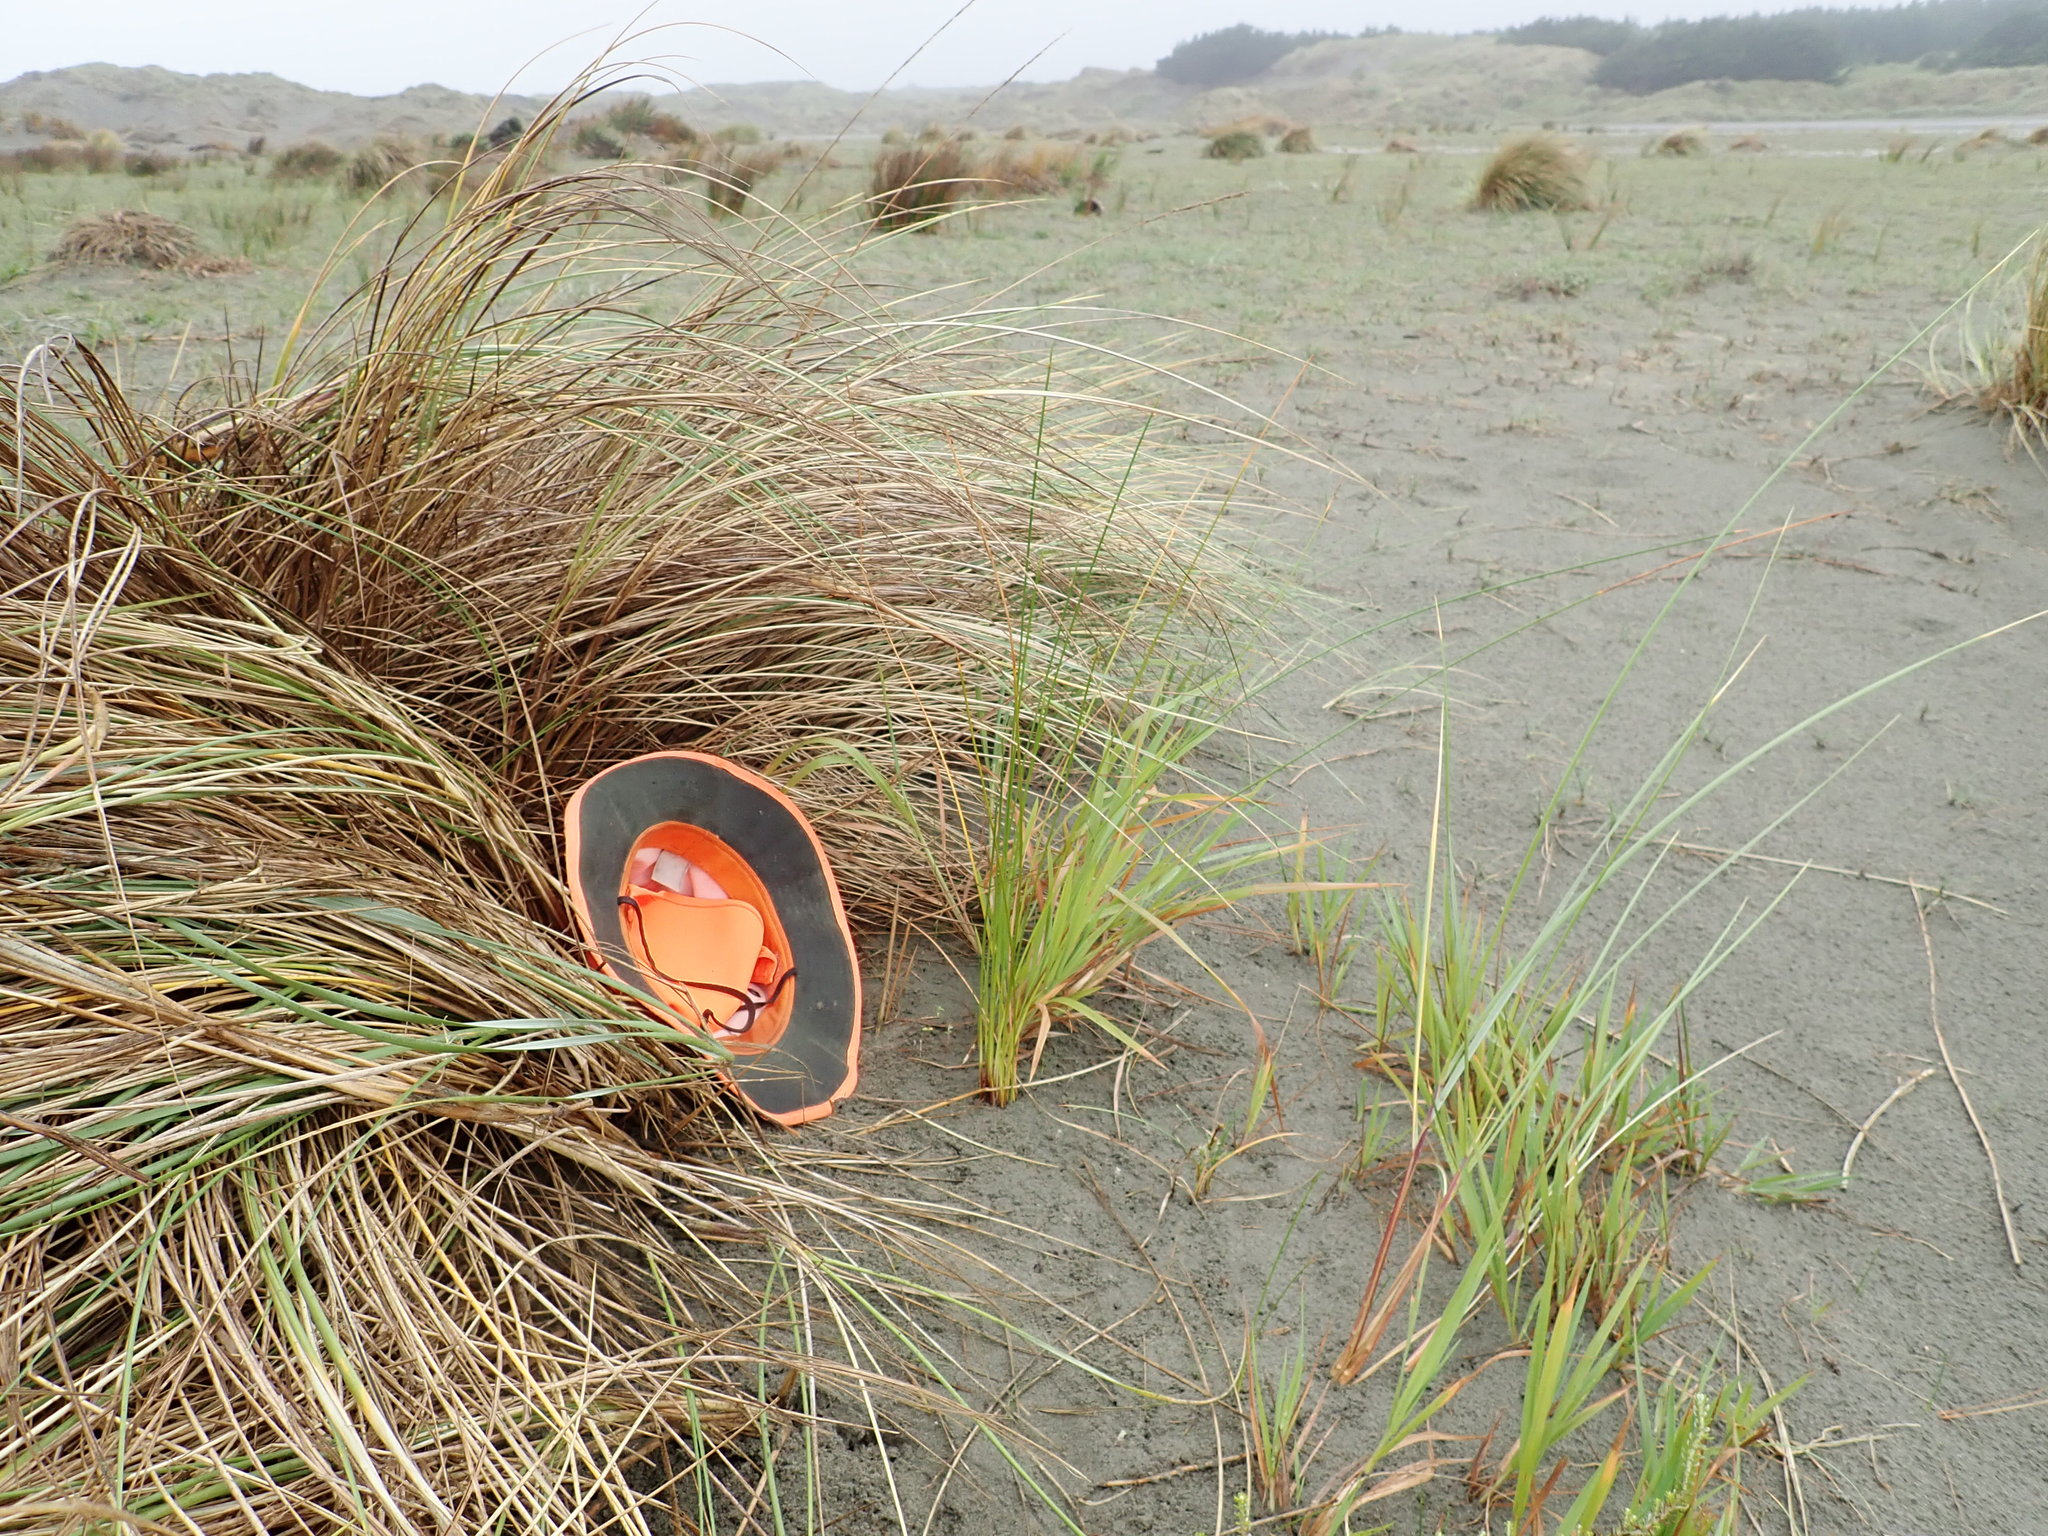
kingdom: Plantae
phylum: Tracheophyta
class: Magnoliopsida
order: Gentianales
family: Rubiaceae
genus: Coprosma
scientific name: Coprosma acerosa
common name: Sand coprosma
